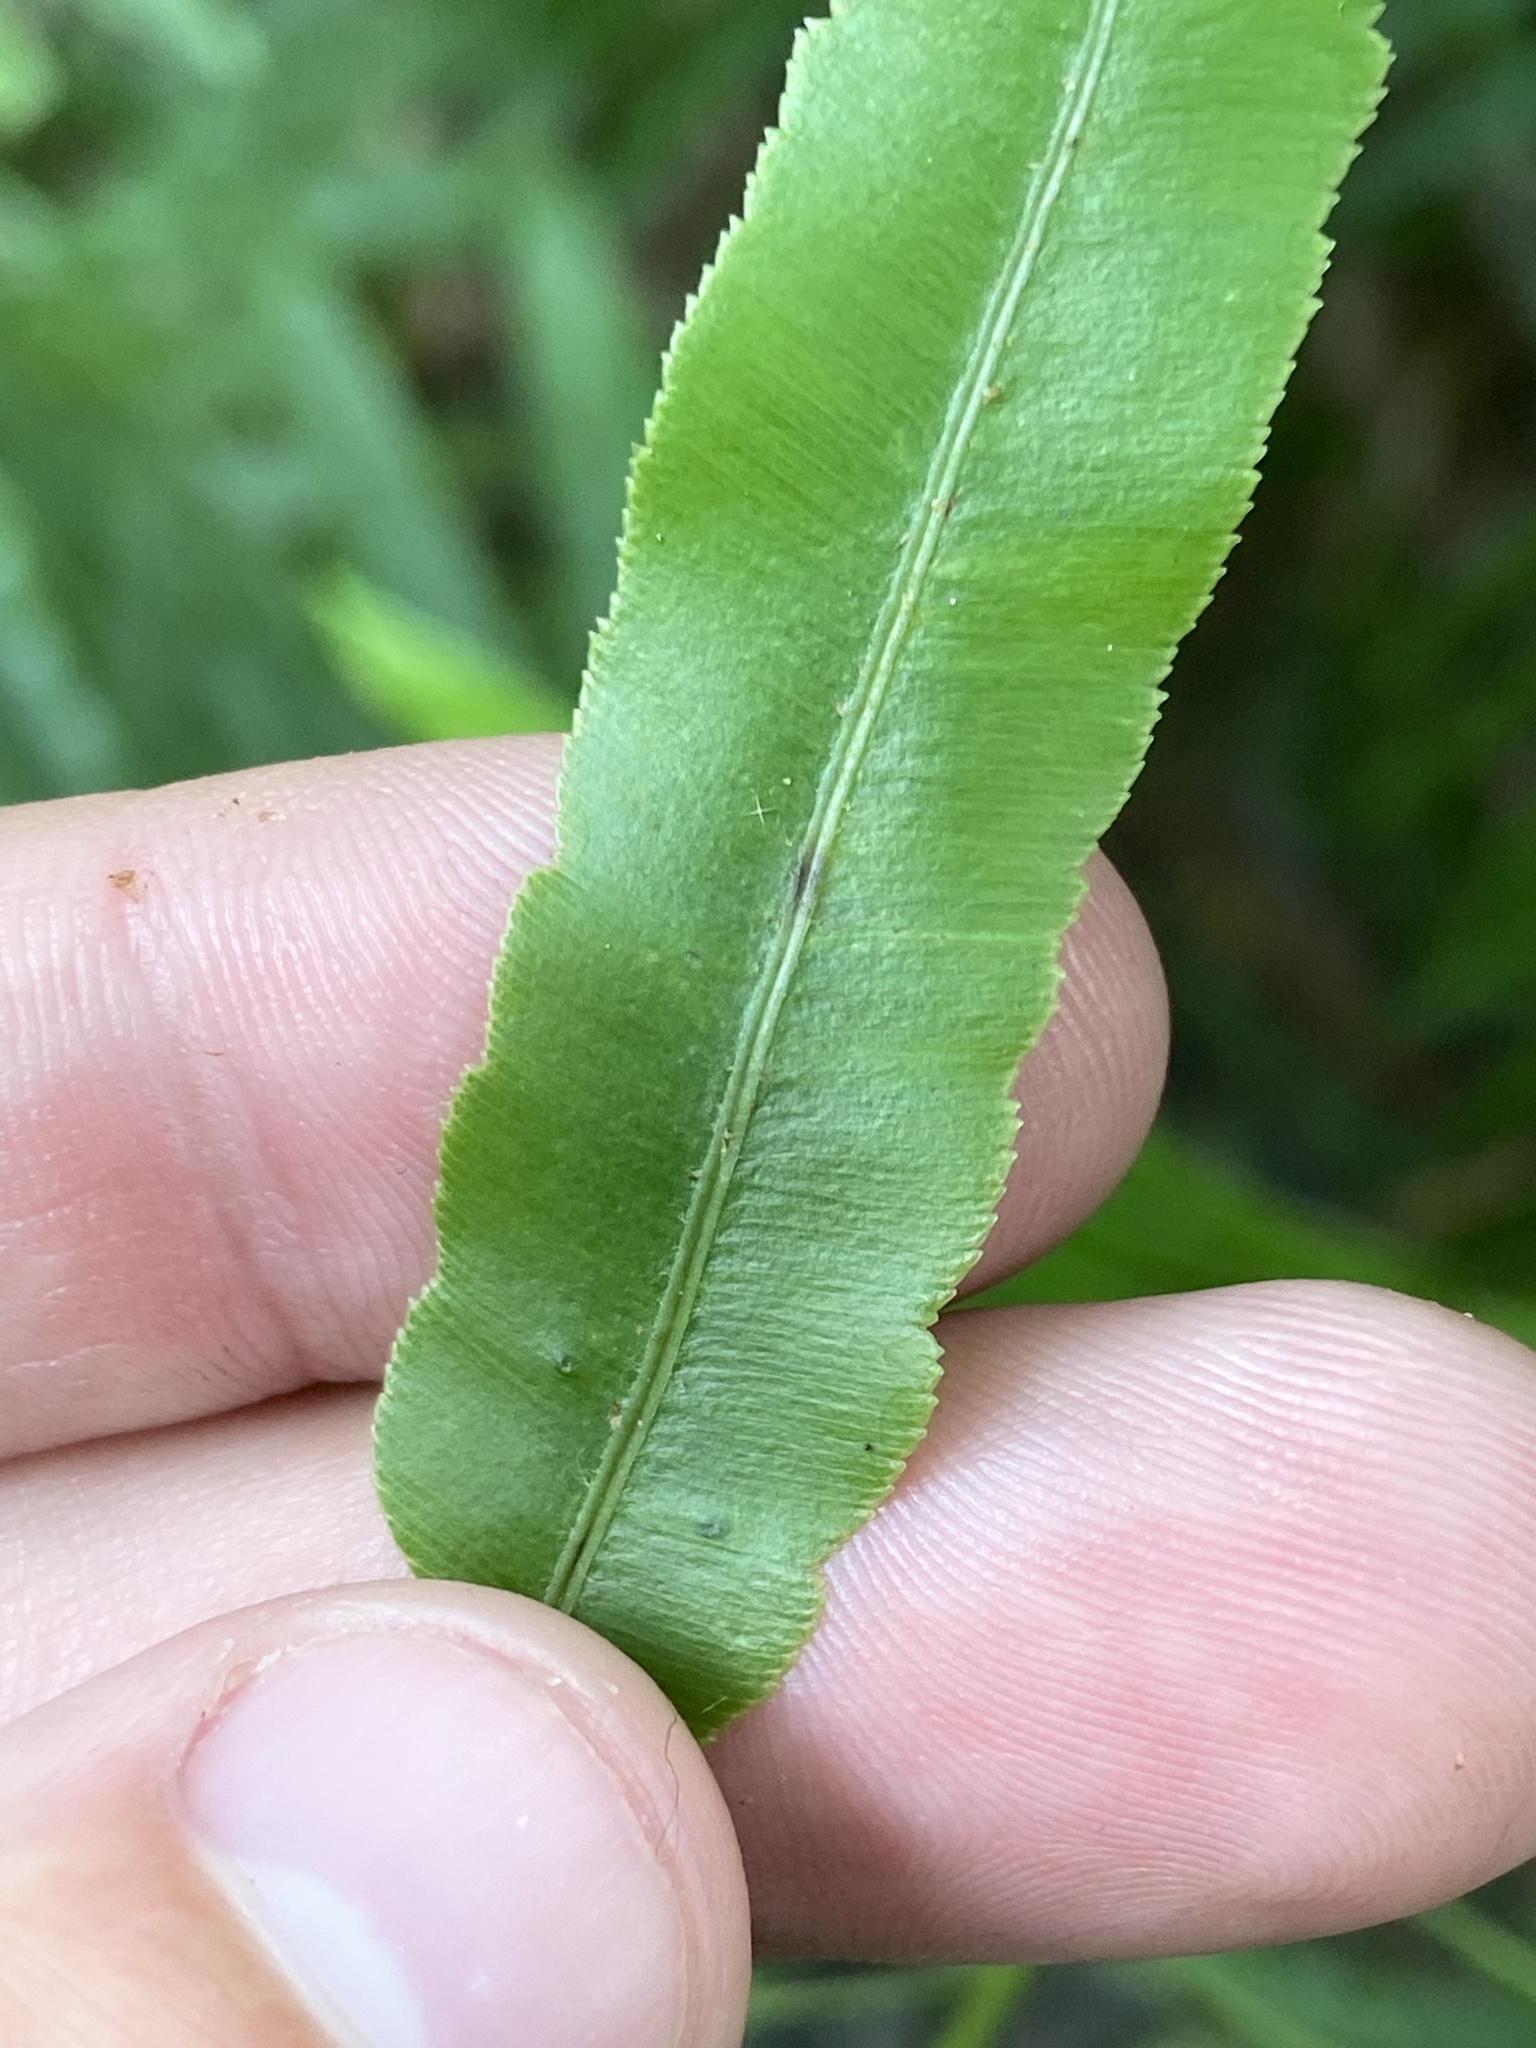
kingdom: Plantae
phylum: Tracheophyta
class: Polypodiopsida
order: Polypodiales
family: Blechnaceae
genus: Telmatoblechnum
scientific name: Telmatoblechnum serrulatum
